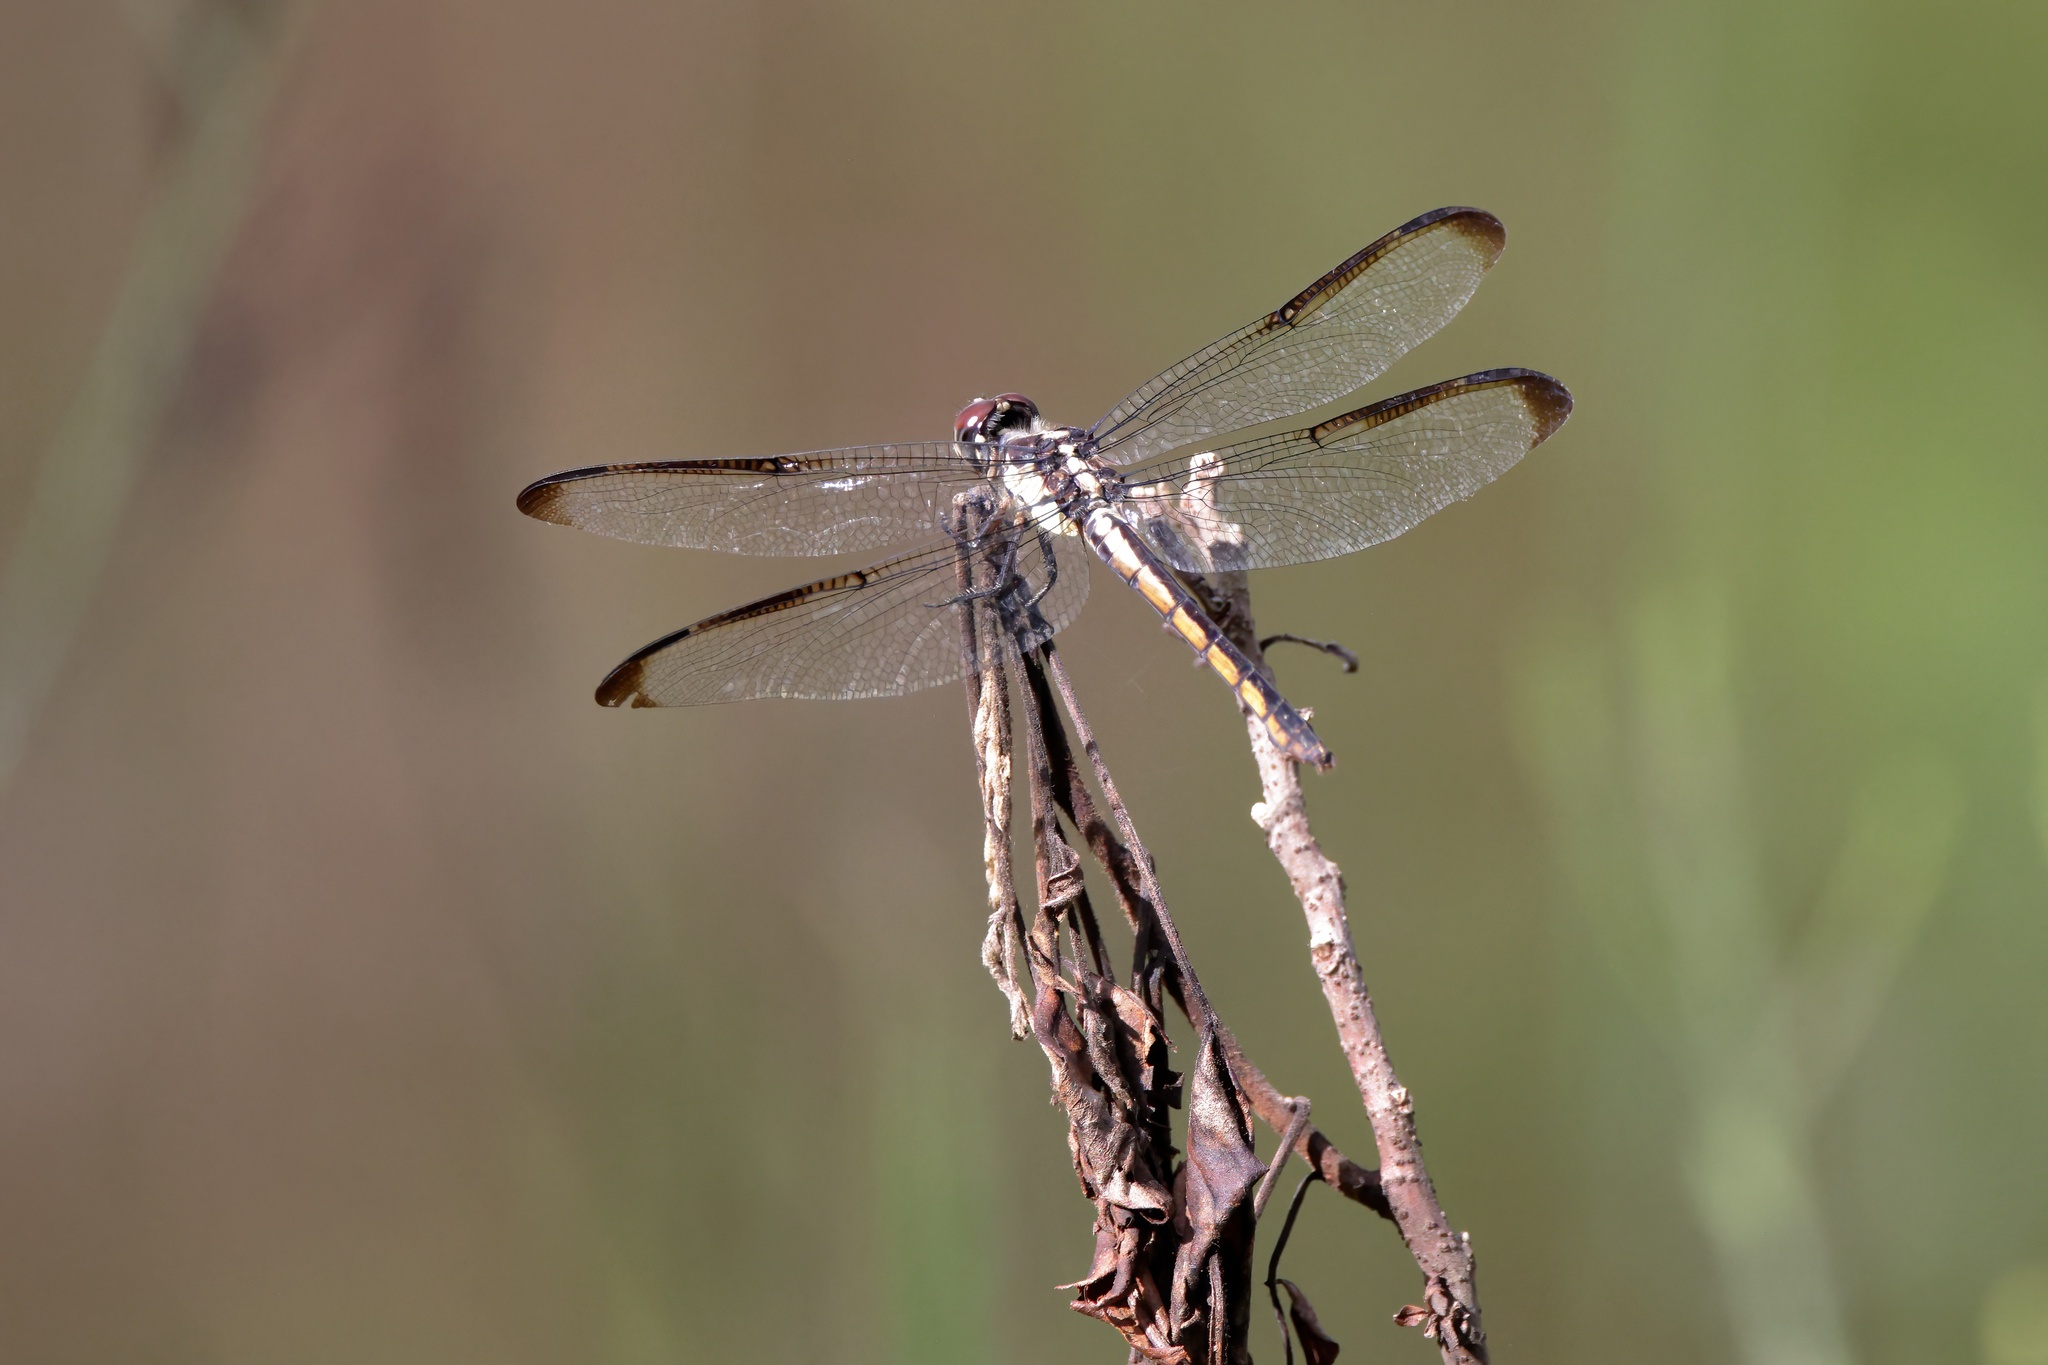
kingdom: Animalia
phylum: Arthropoda
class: Insecta
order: Odonata
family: Libellulidae
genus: Libellula
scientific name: Libellula incesta
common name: Slaty skimmer
